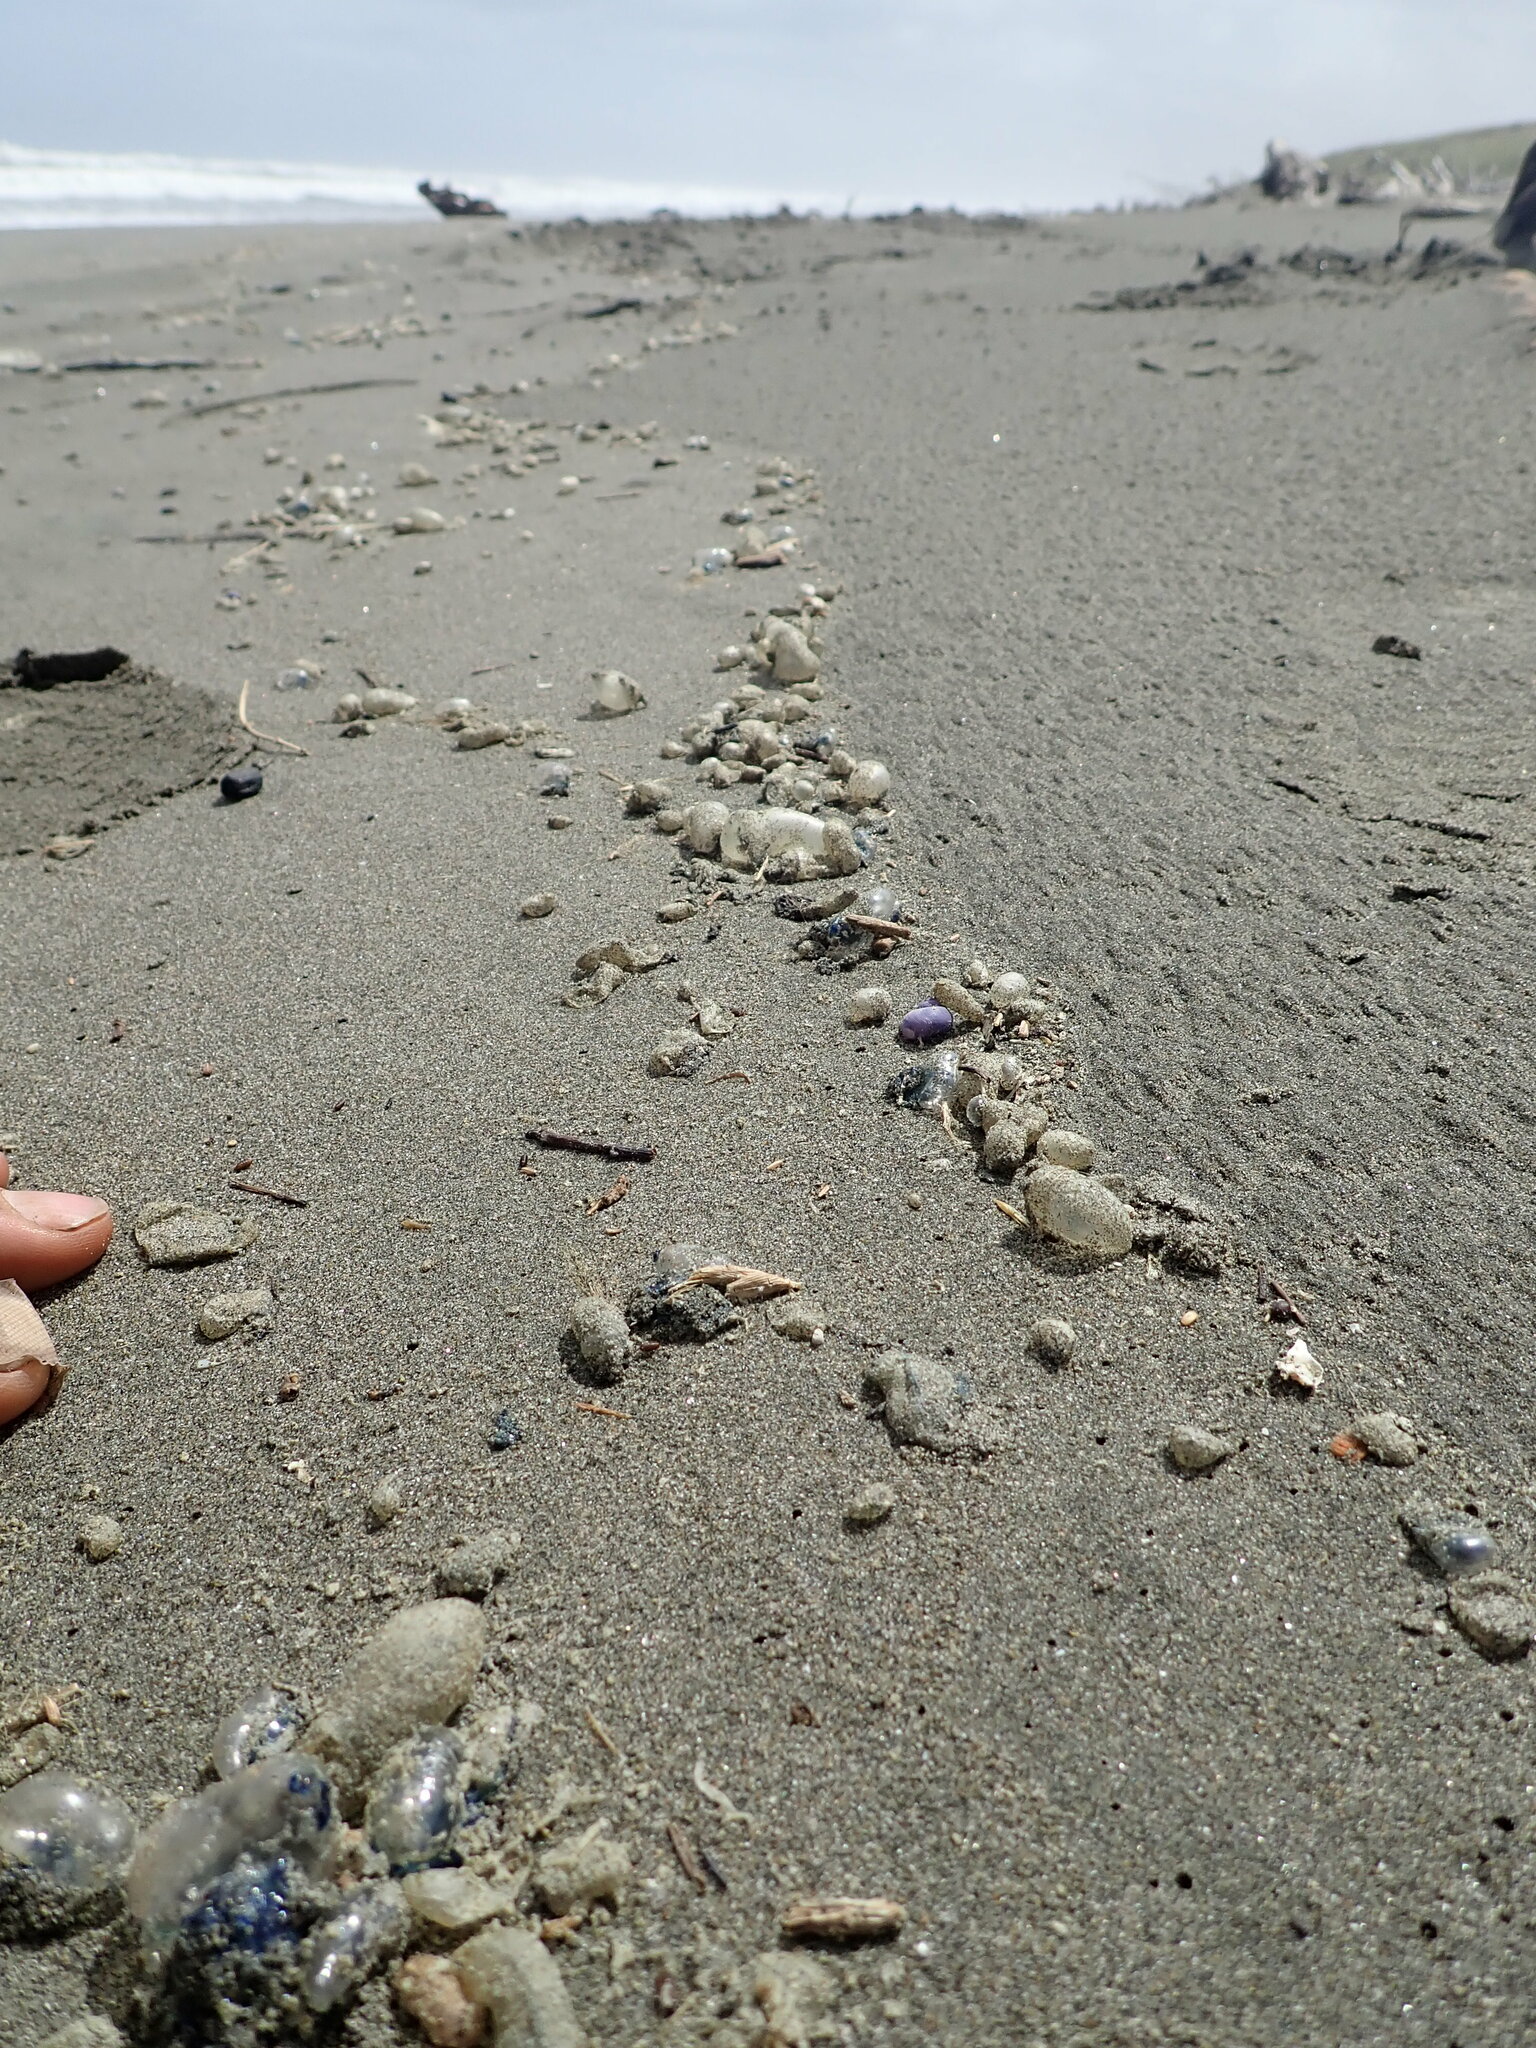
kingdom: Animalia
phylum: Mollusca
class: Gastropoda
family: Epitoniidae
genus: Janthina
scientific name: Janthina exigua
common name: Dwarf janthina
